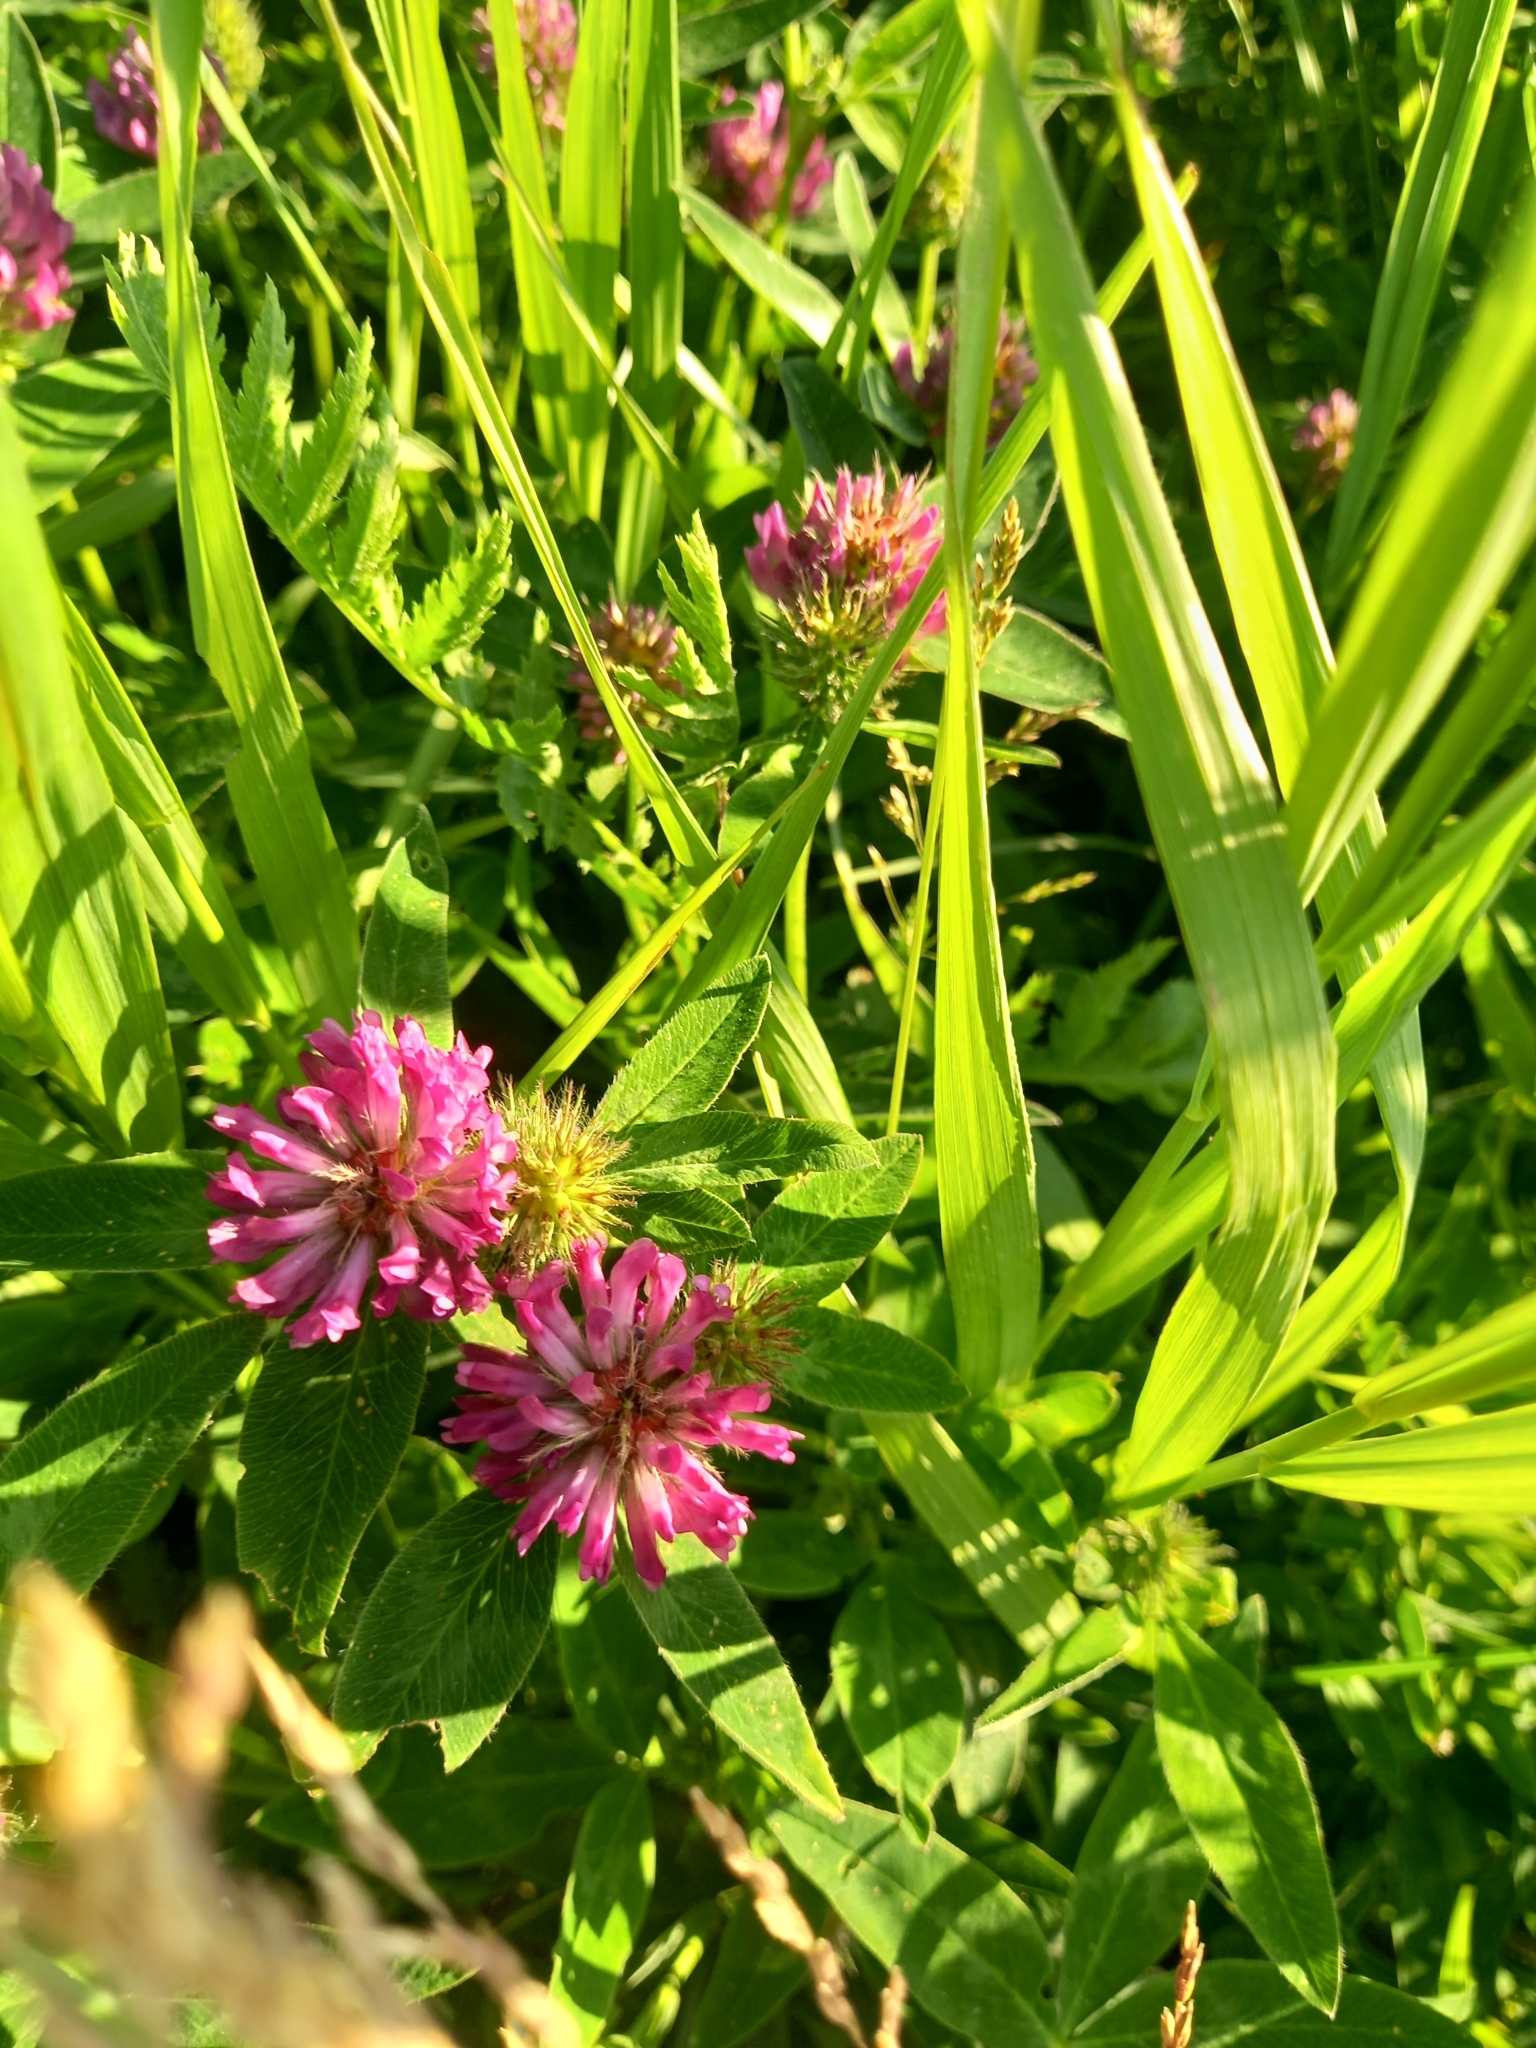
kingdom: Plantae
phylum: Tracheophyta
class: Magnoliopsida
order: Fabales
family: Fabaceae
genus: Trifolium
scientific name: Trifolium medium
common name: Zigzag clover
